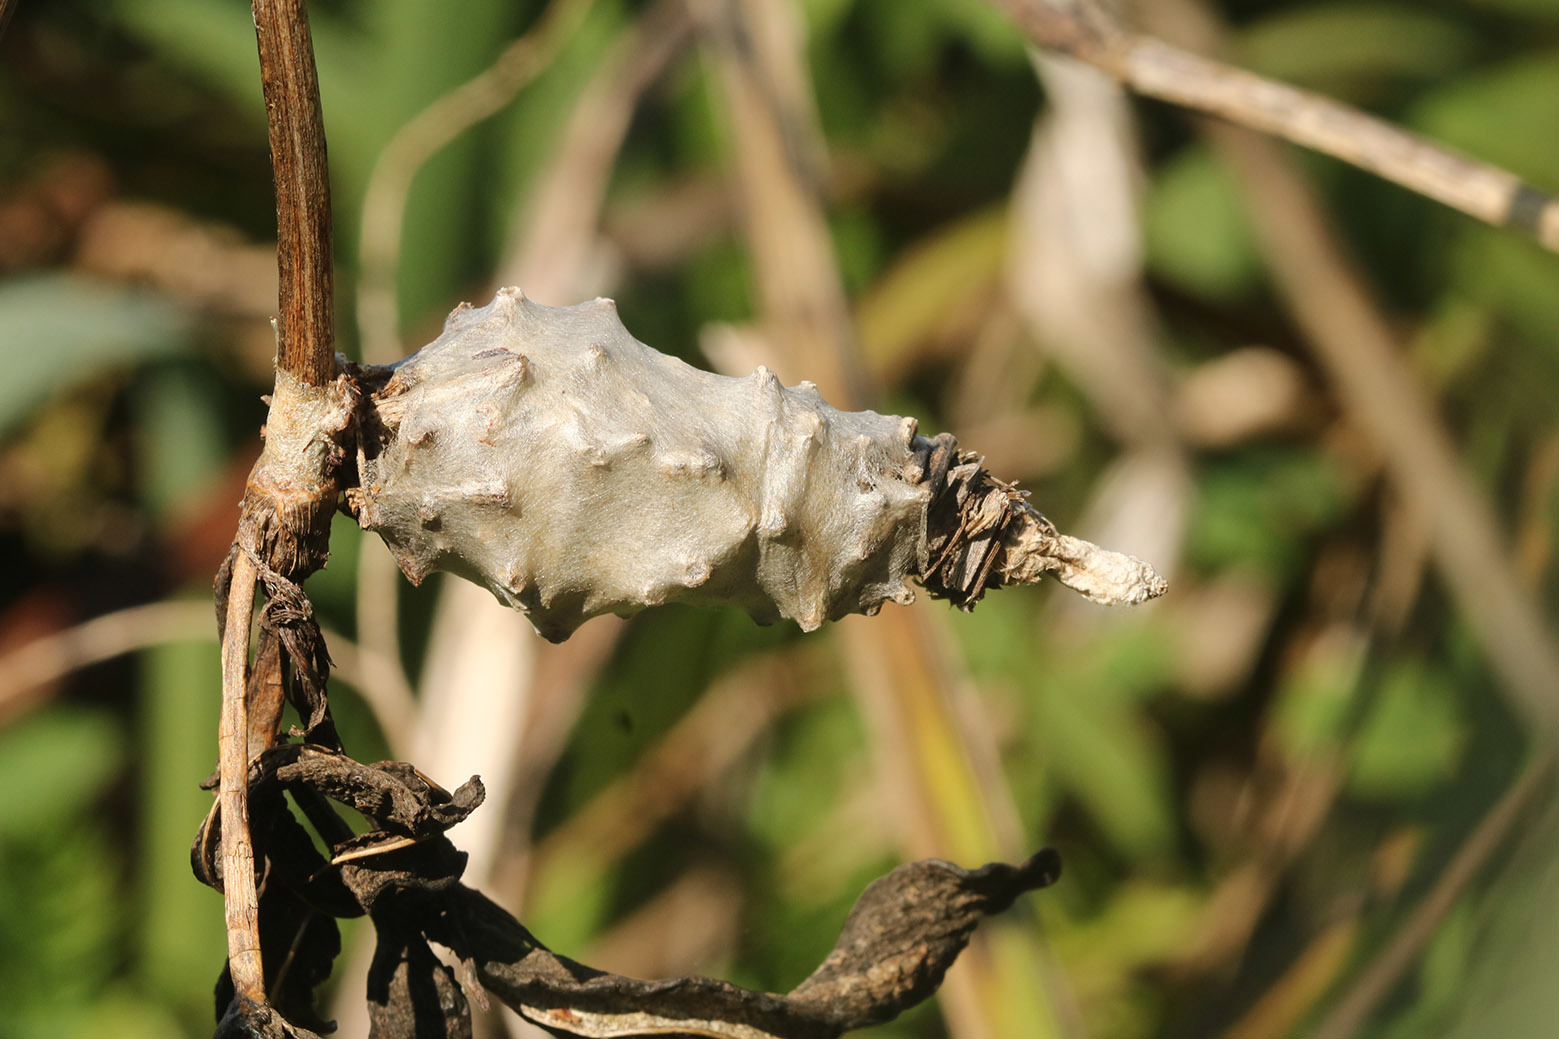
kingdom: Animalia
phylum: Arthropoda
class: Insecta
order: Lepidoptera
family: Psychidae
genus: Oiketicus
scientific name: Oiketicus
